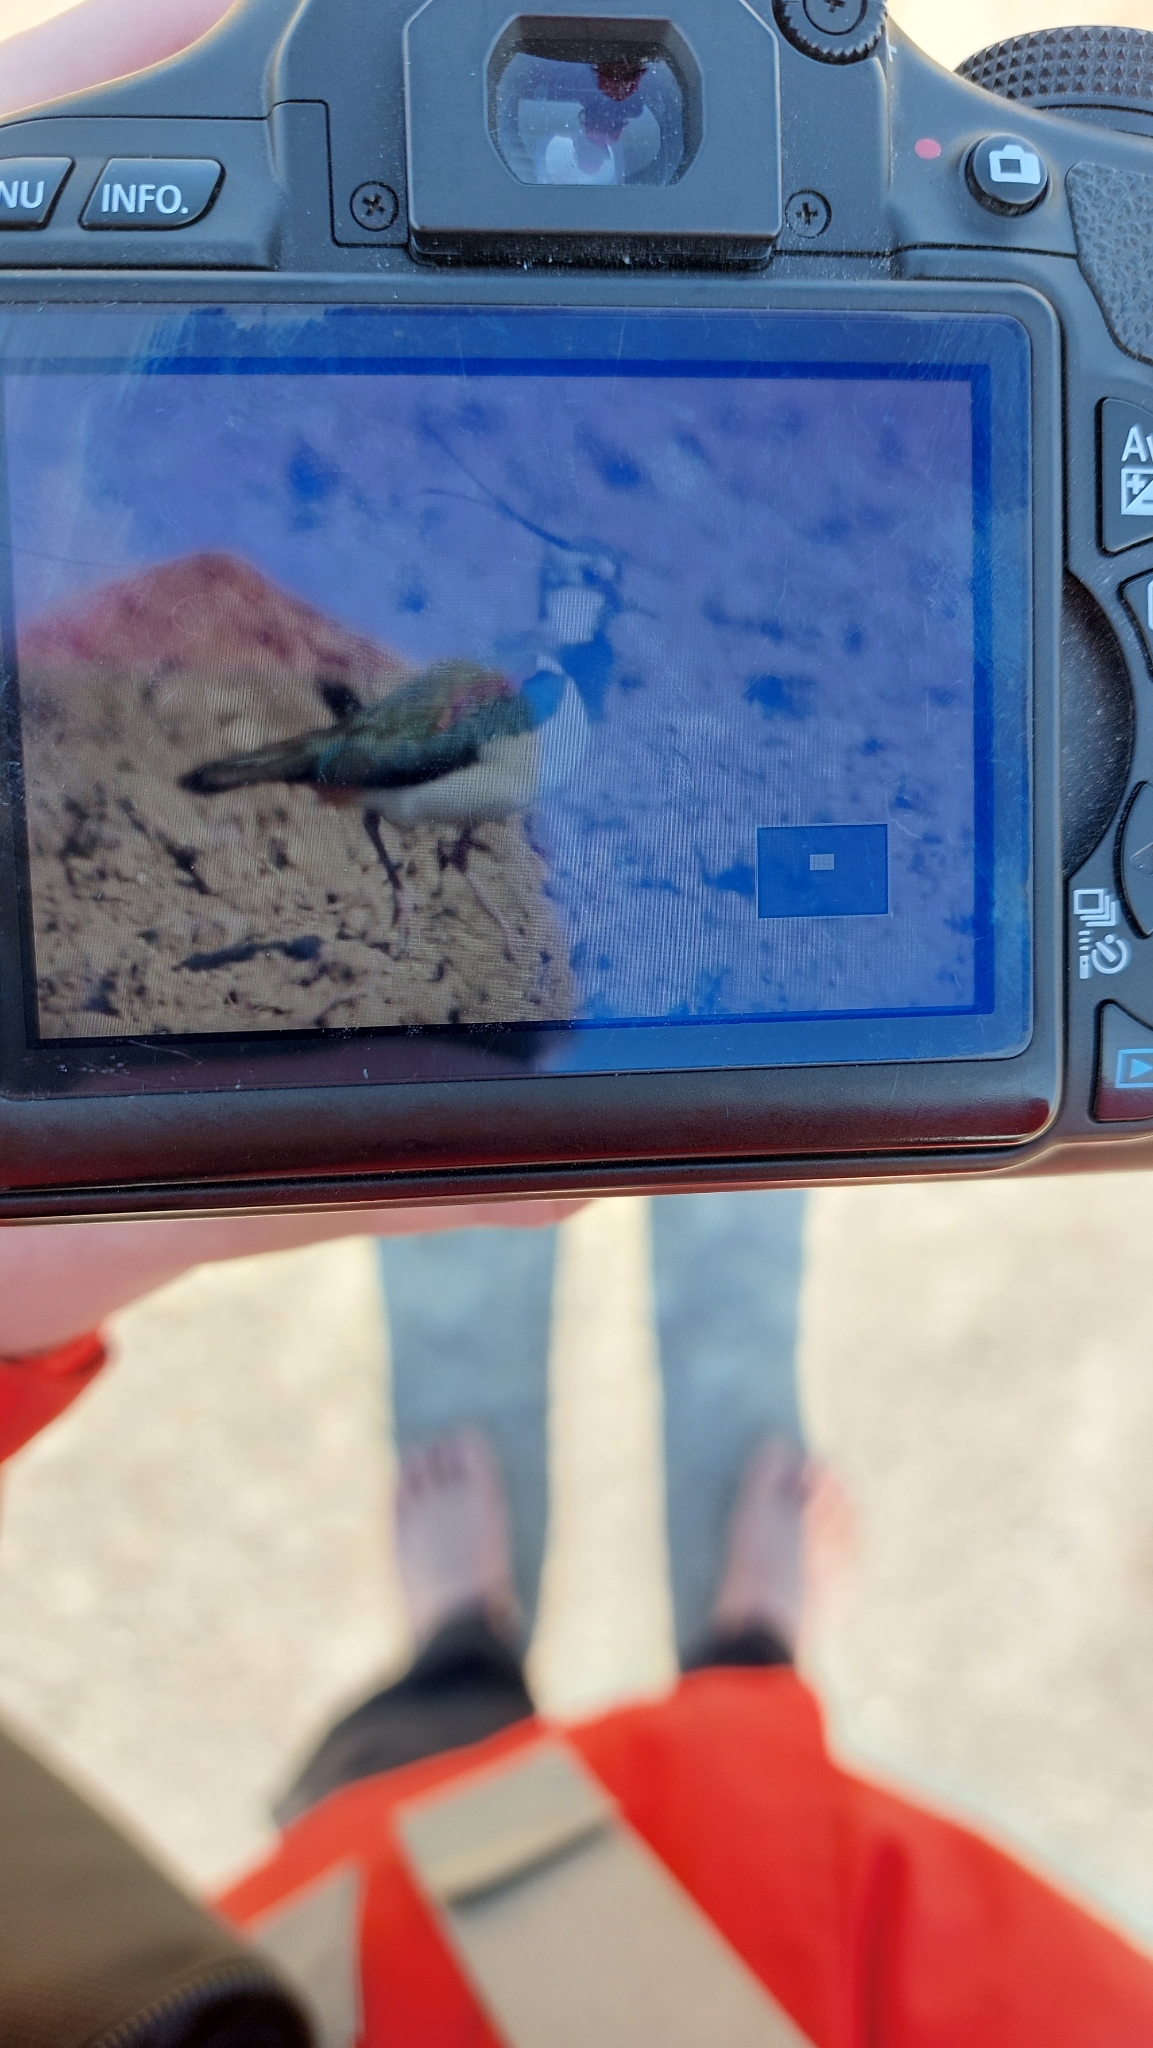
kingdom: Animalia
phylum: Chordata
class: Aves
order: Charadriiformes
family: Charadriidae
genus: Vanellus
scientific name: Vanellus vanellus
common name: Northern lapwing
